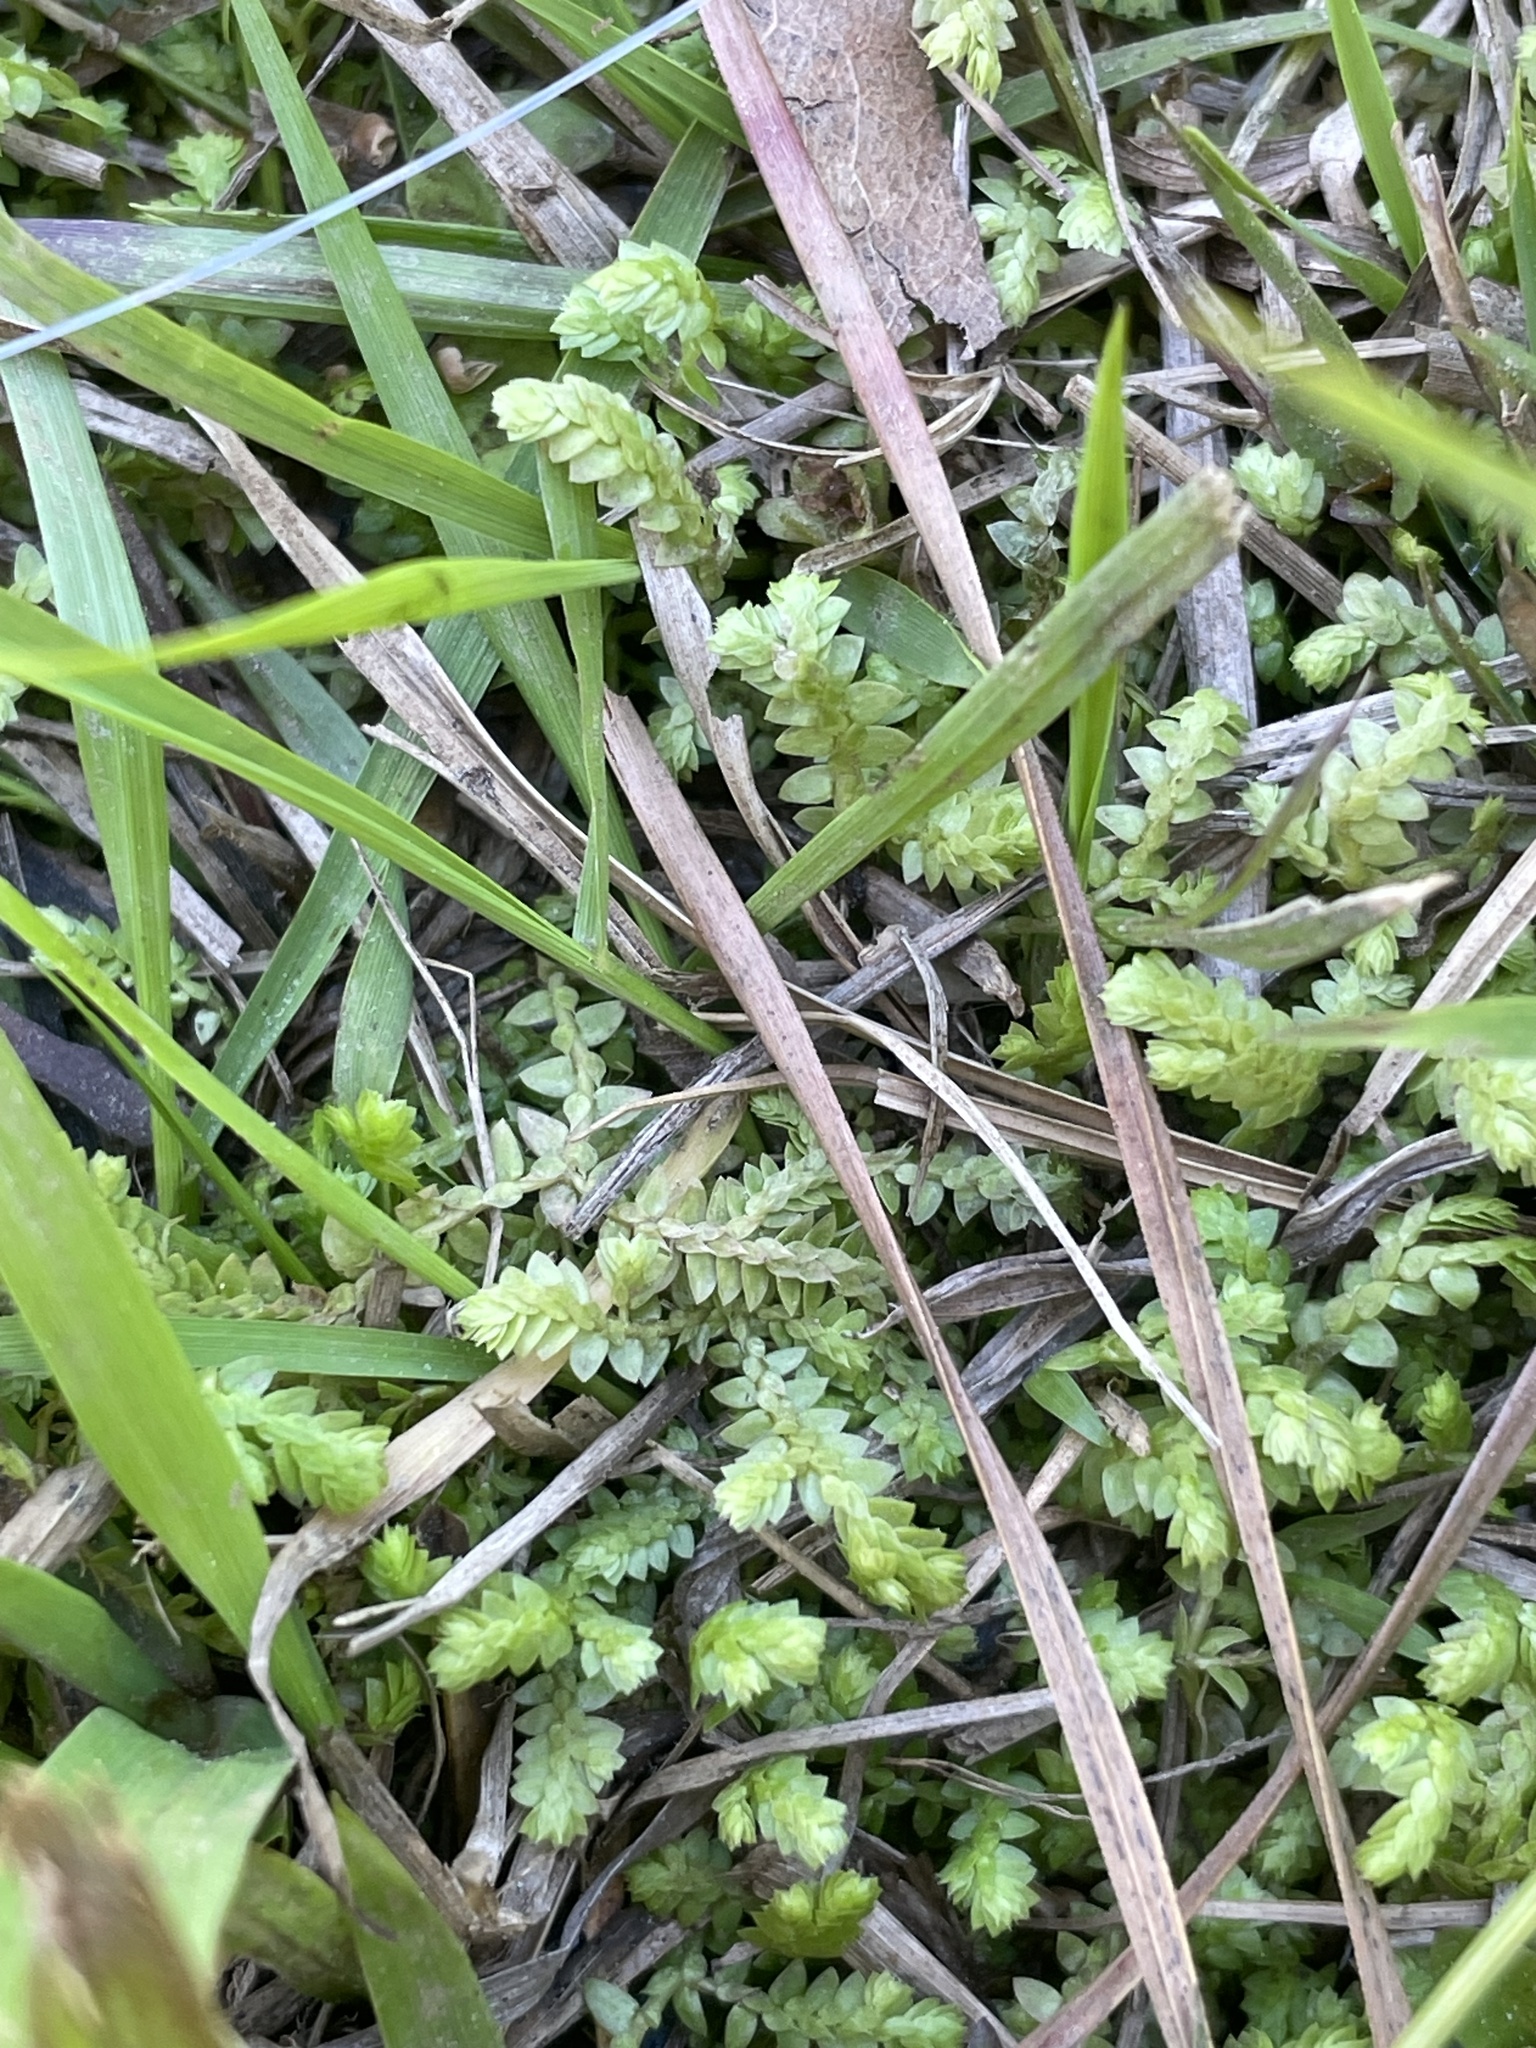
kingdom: Plantae
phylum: Tracheophyta
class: Lycopodiopsida
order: Selaginellales
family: Selaginellaceae
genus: Selaginella
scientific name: Selaginella apoda
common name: Creeping spikemoss
